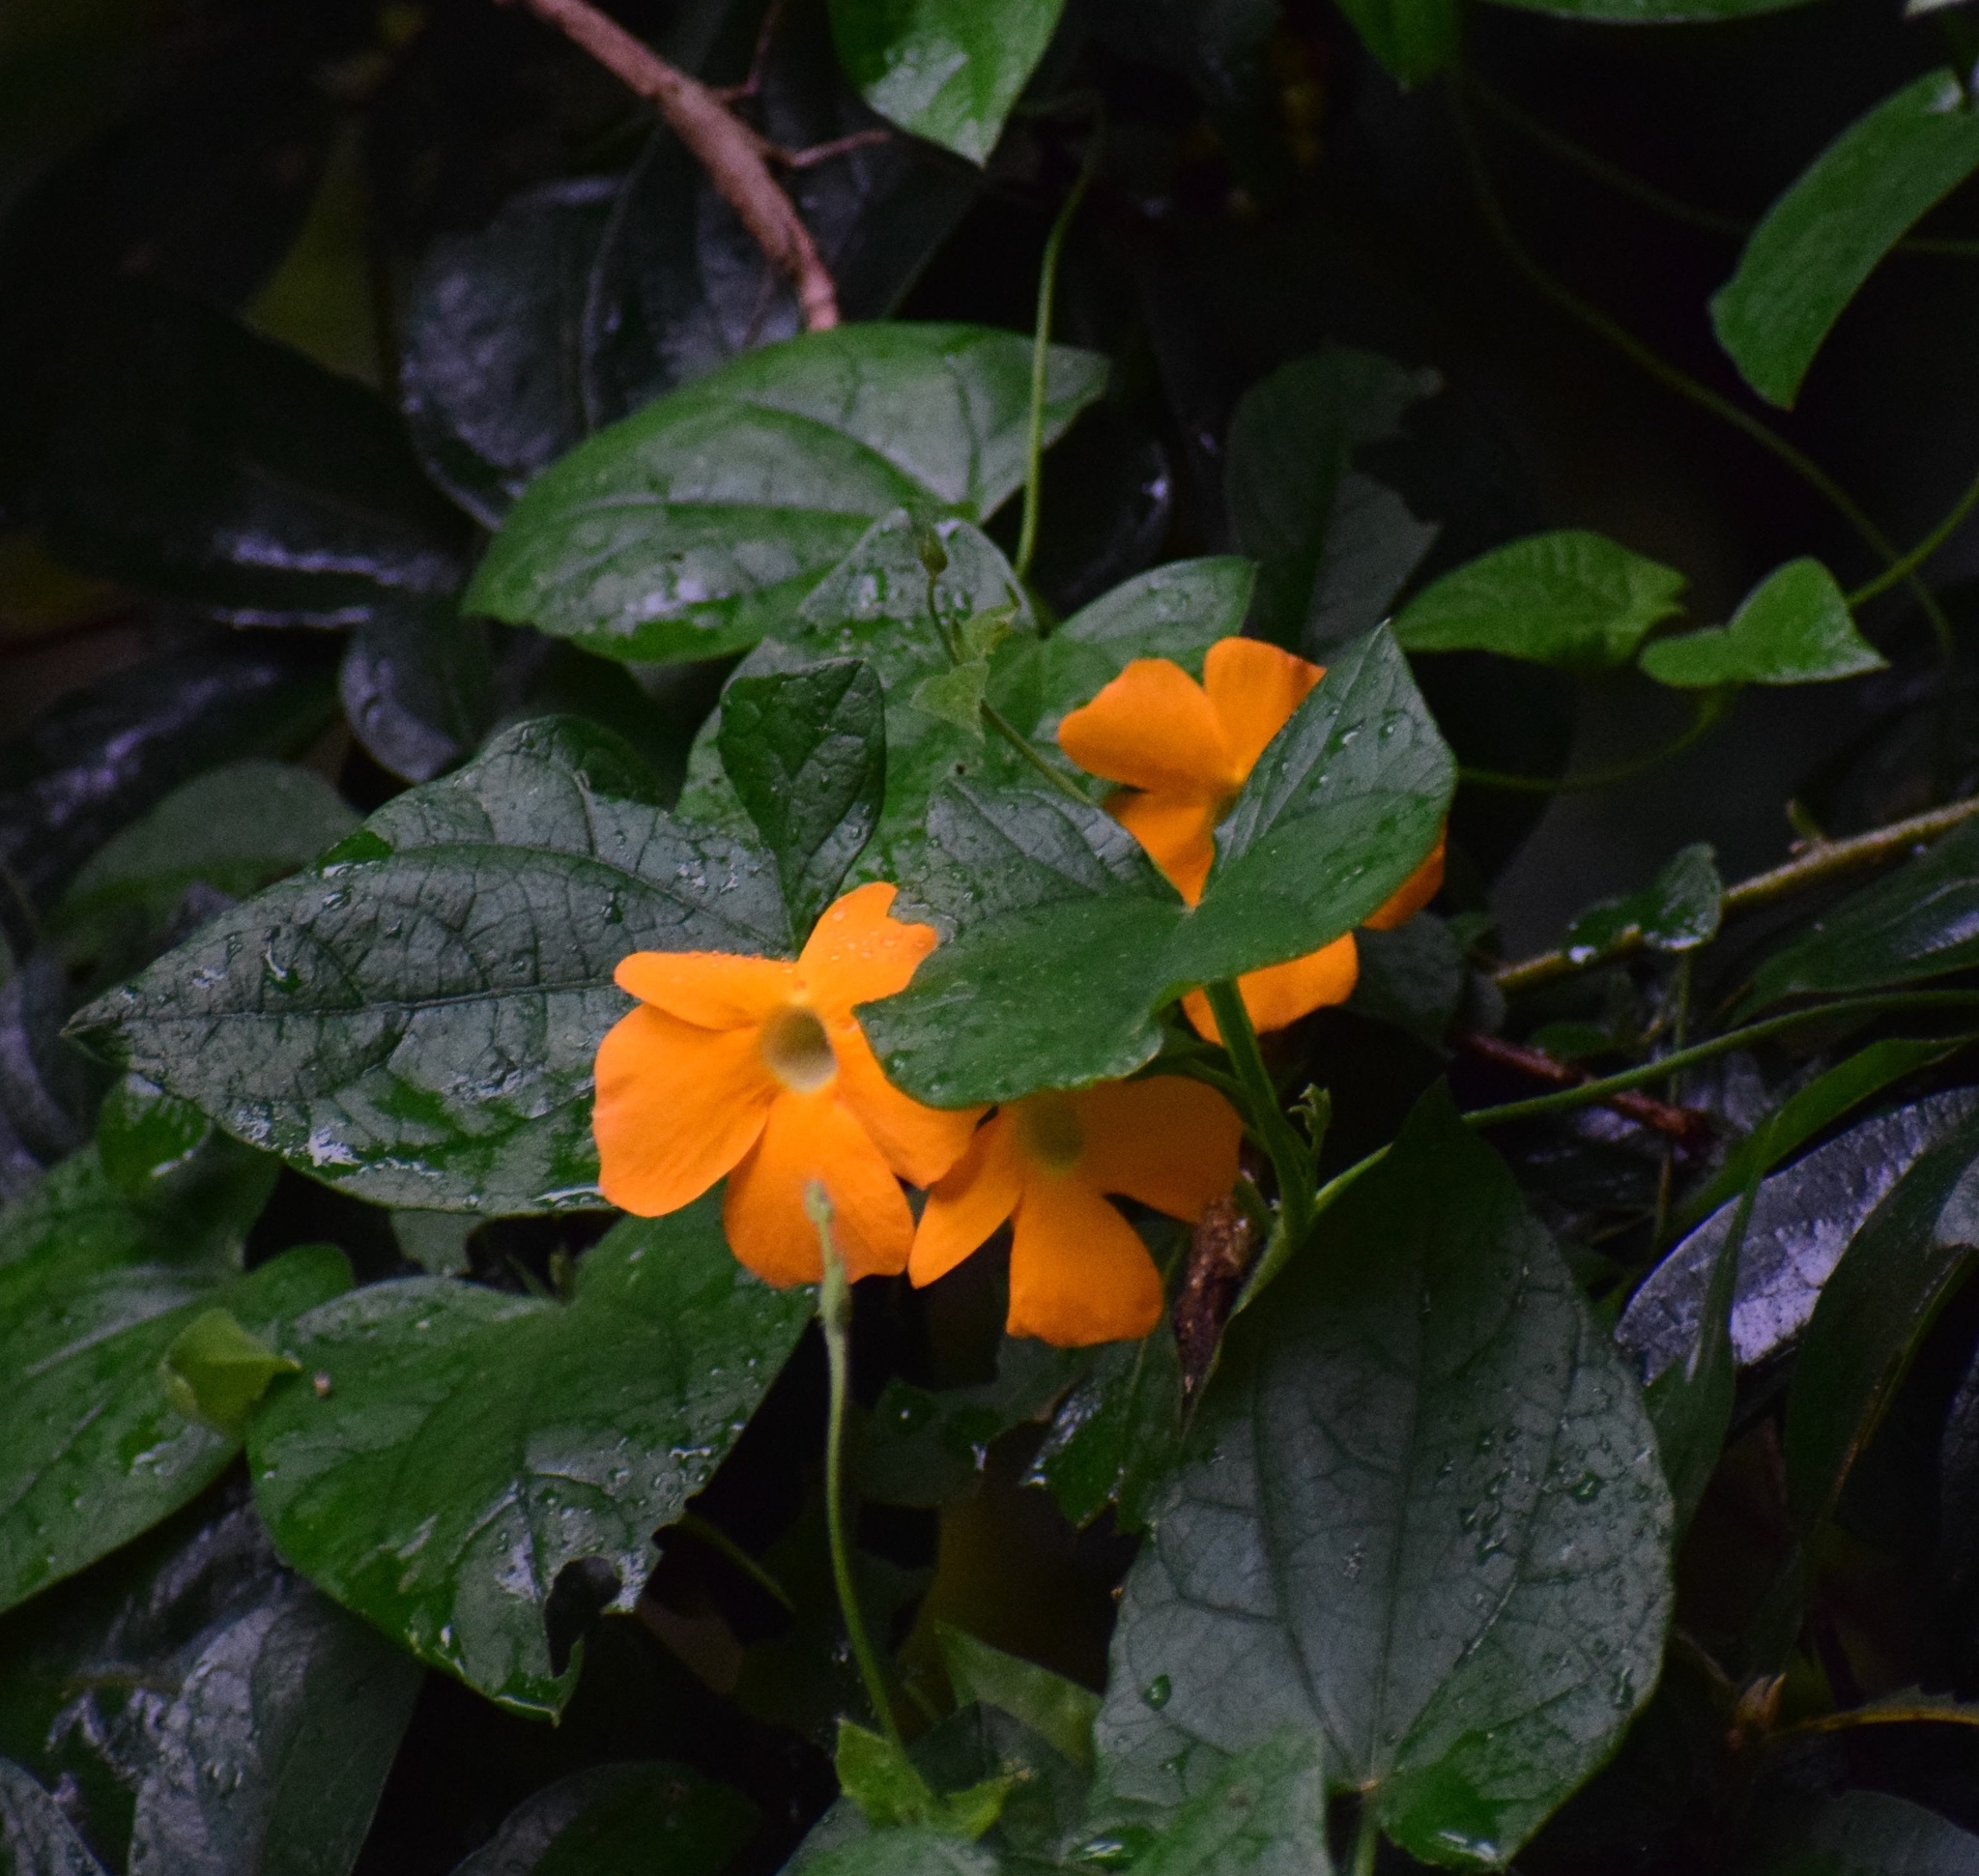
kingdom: Plantae
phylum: Tracheophyta
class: Magnoliopsida
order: Lamiales
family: Acanthaceae
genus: Thunbergia
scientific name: Thunbergia alata
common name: Blackeyed susan vine
